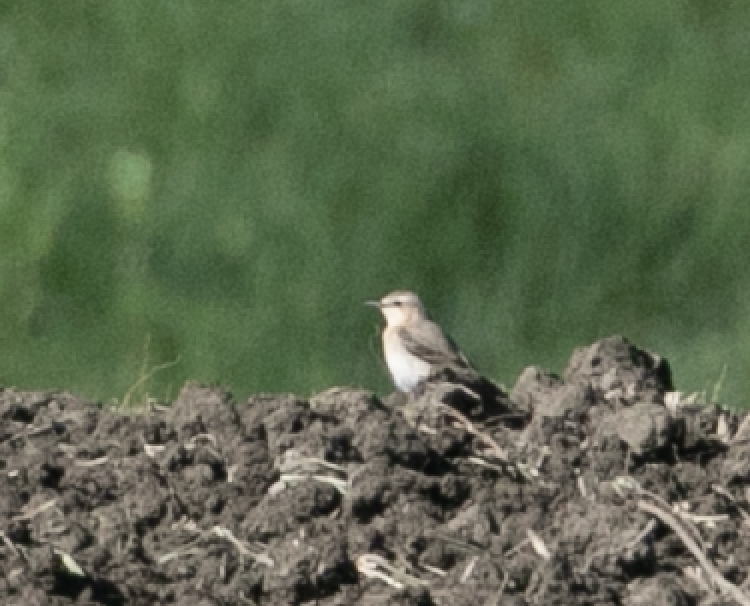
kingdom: Animalia
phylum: Chordata
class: Aves
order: Passeriformes
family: Muscicapidae
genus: Oenanthe
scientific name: Oenanthe oenanthe
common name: Northern wheatear
